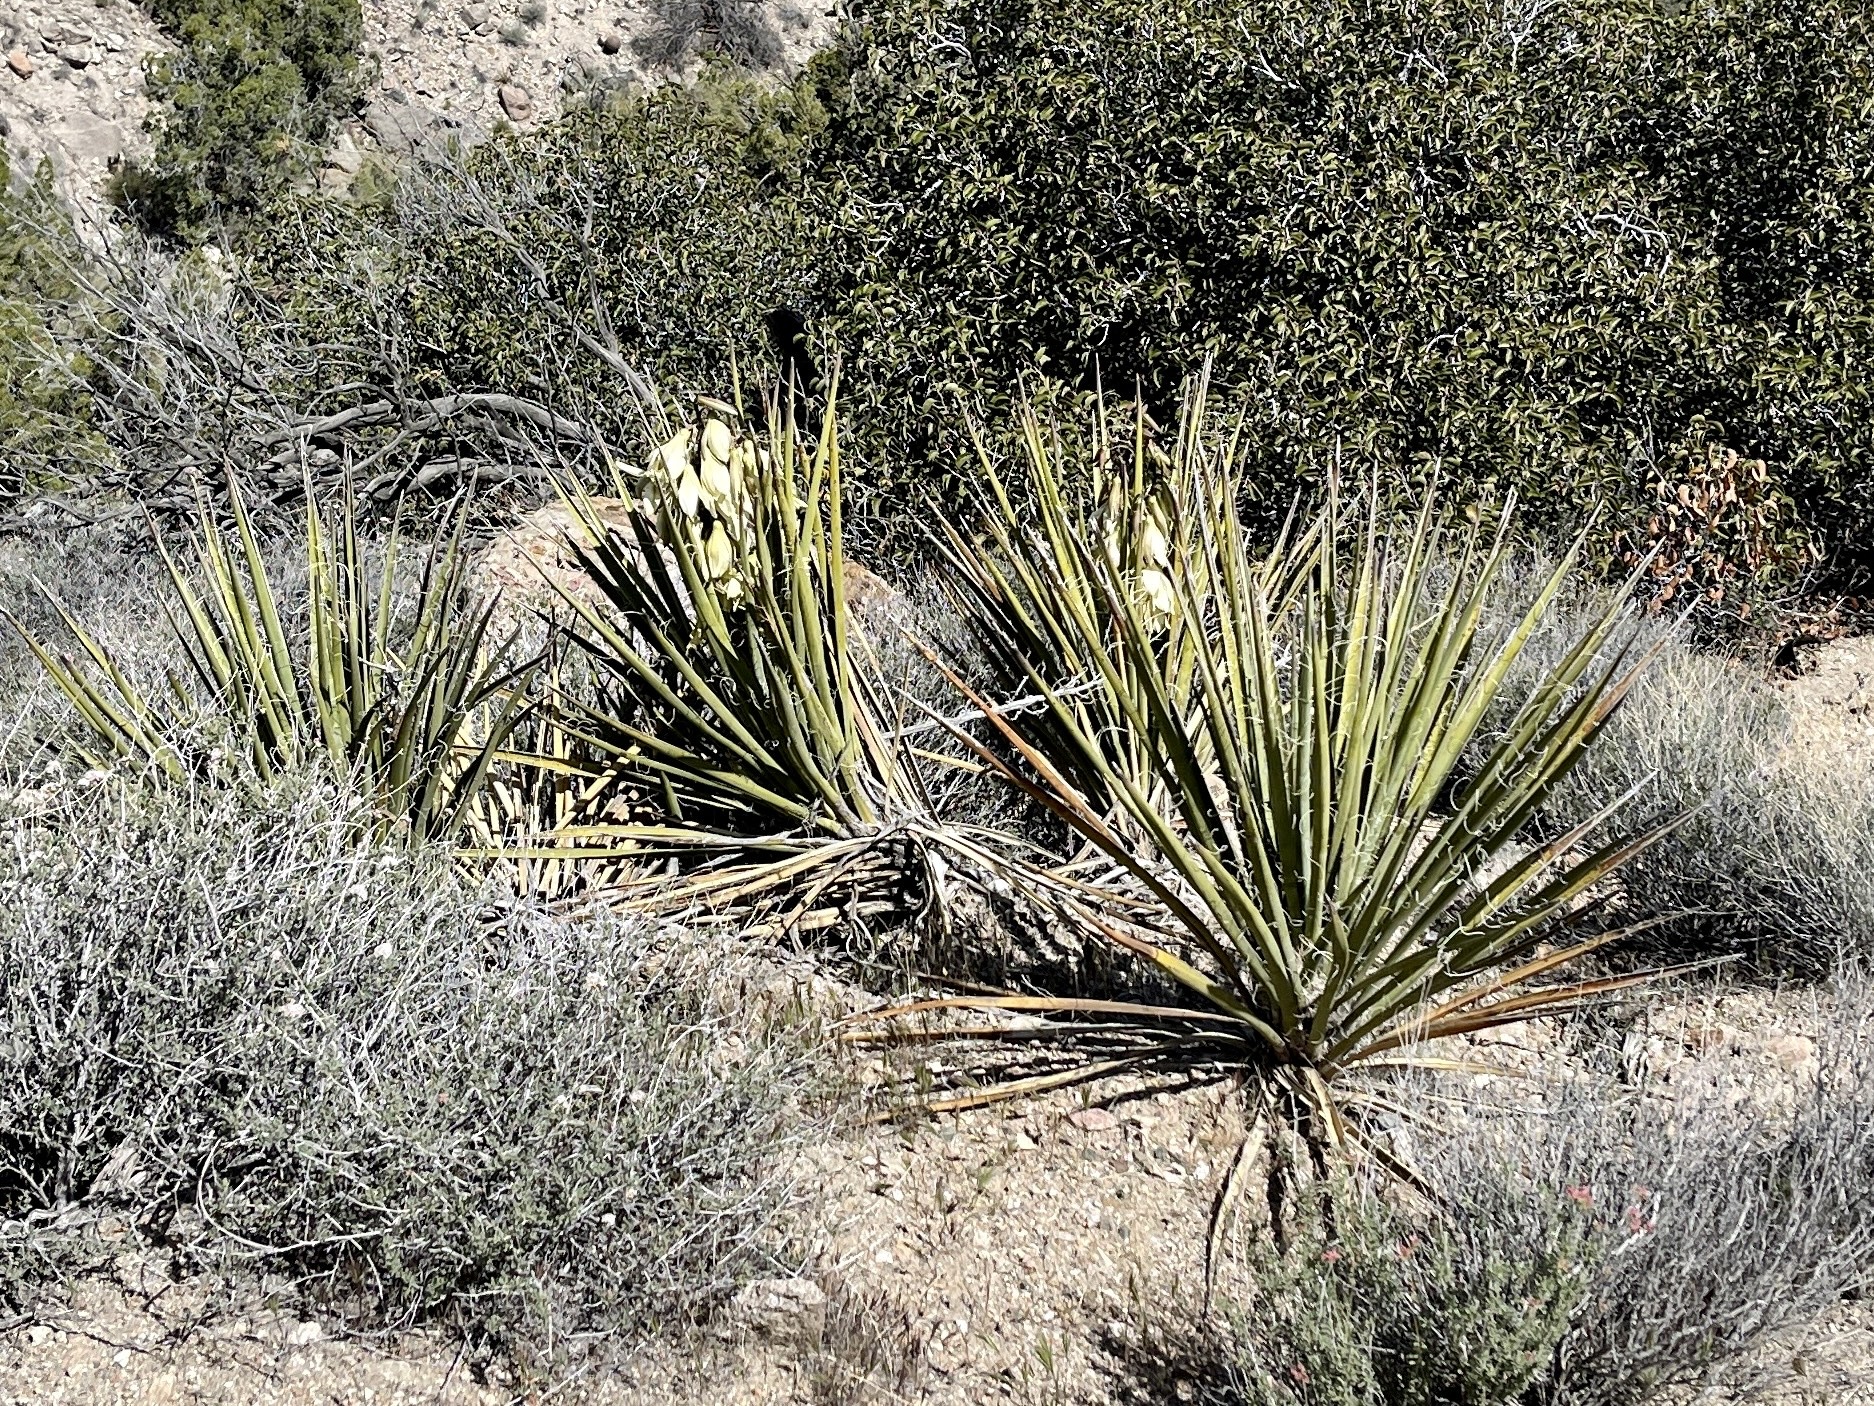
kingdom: Plantae
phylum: Tracheophyta
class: Liliopsida
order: Asparagales
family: Asparagaceae
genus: Yucca
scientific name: Yucca baccata
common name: Banana yucca
